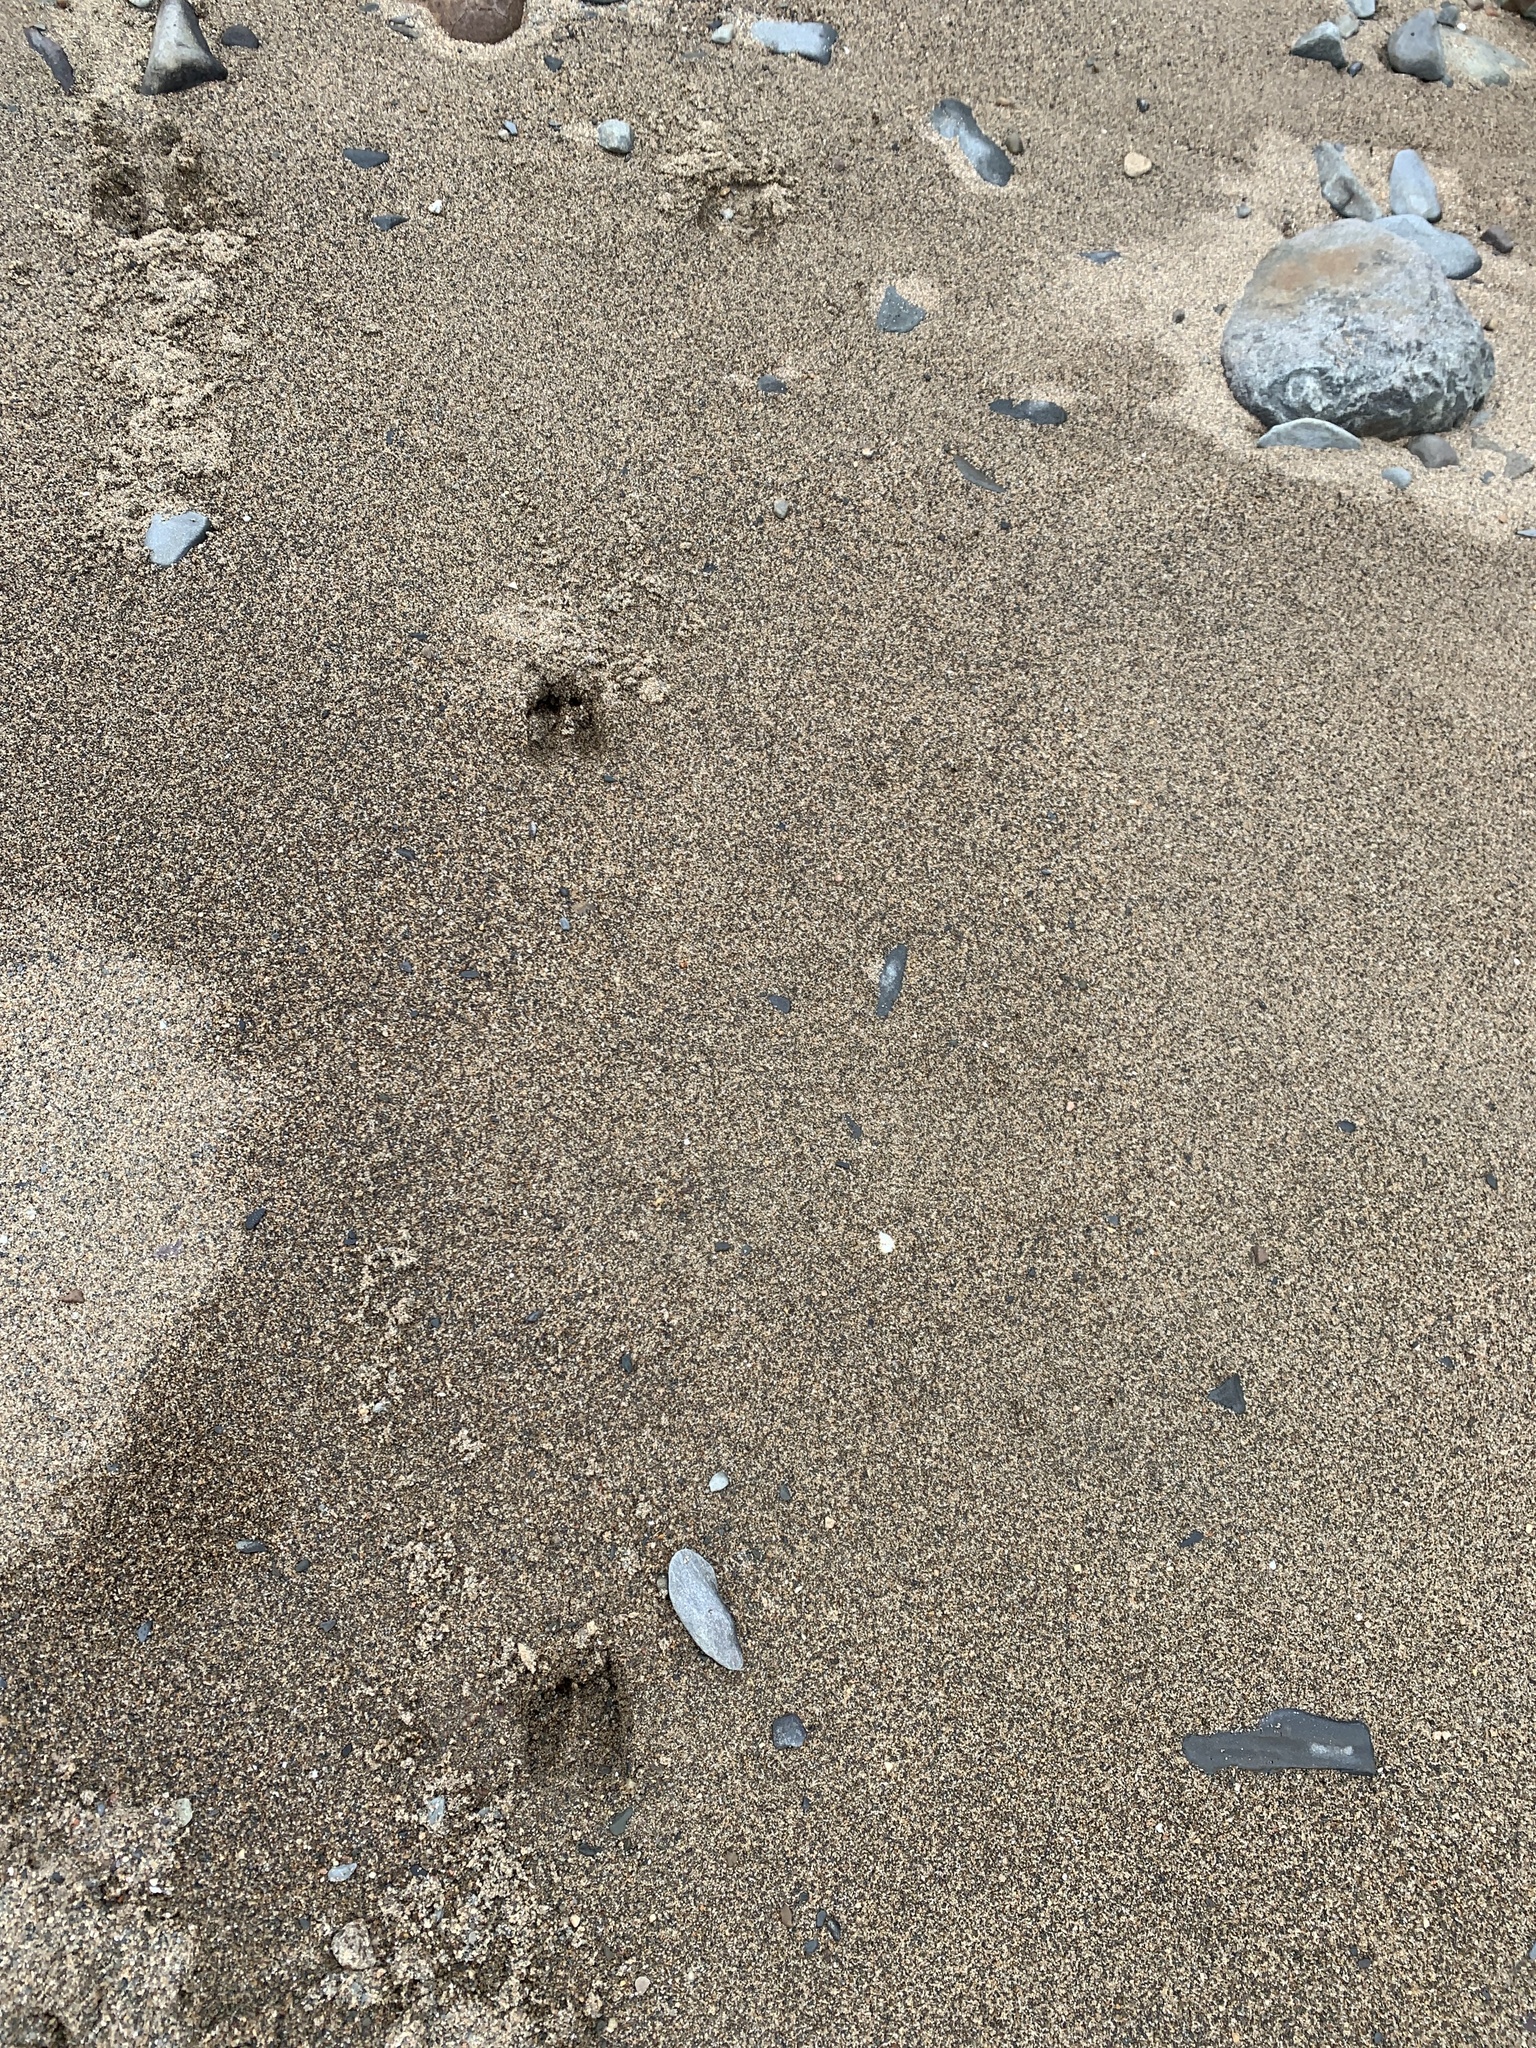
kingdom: Animalia
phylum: Chordata
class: Mammalia
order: Artiodactyla
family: Cervidae
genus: Odocoileus
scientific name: Odocoileus virginianus
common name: White-tailed deer
